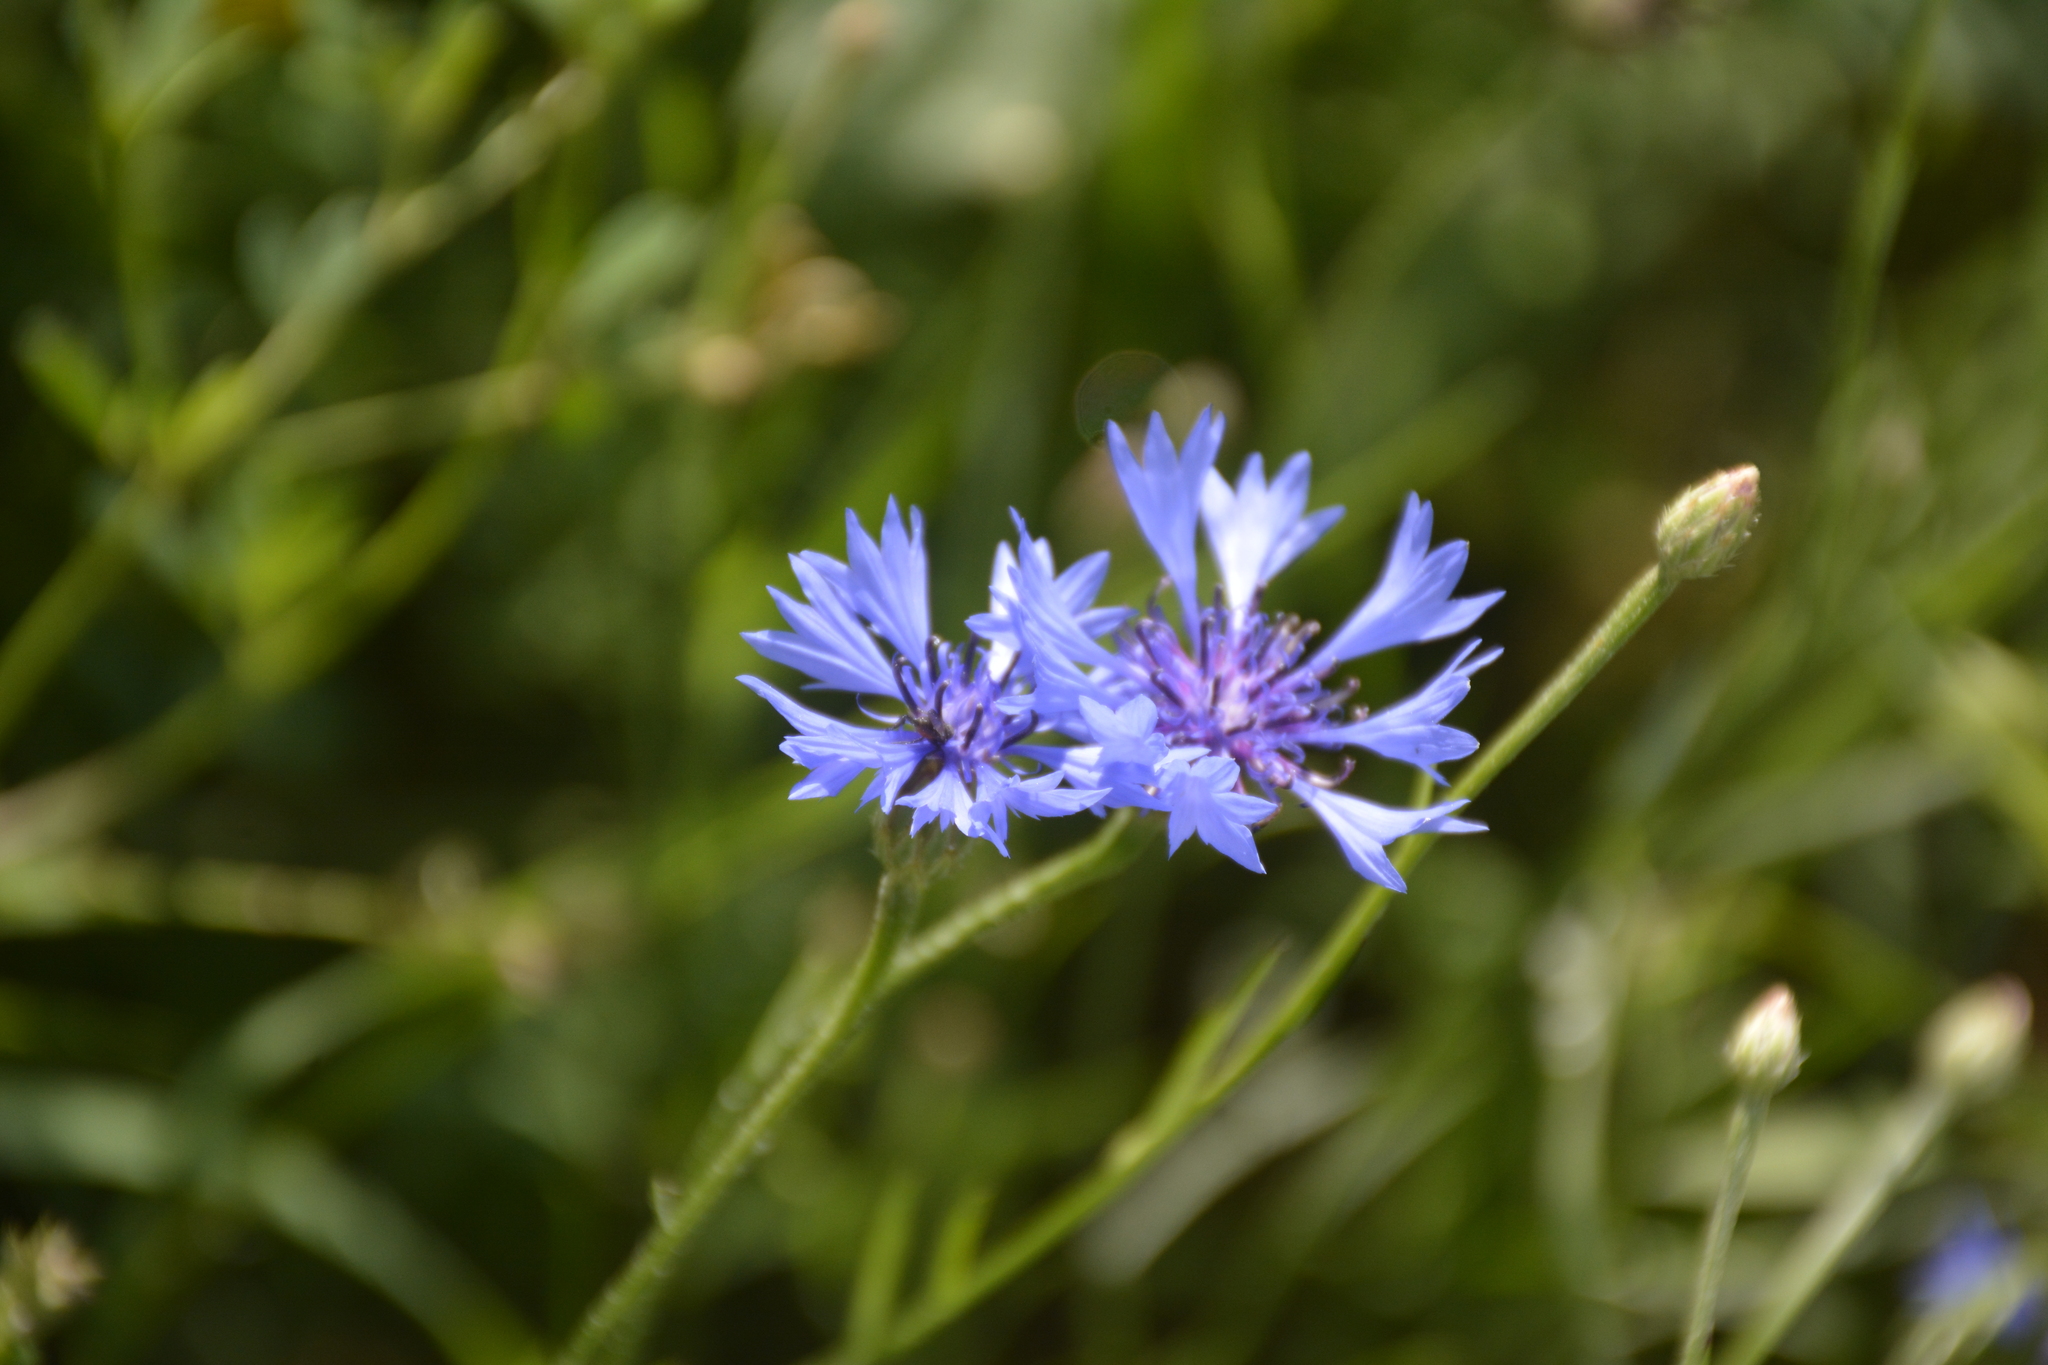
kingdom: Plantae
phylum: Tracheophyta
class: Magnoliopsida
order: Asterales
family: Asteraceae
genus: Centaurea
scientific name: Centaurea cyanus
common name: Cornflower
